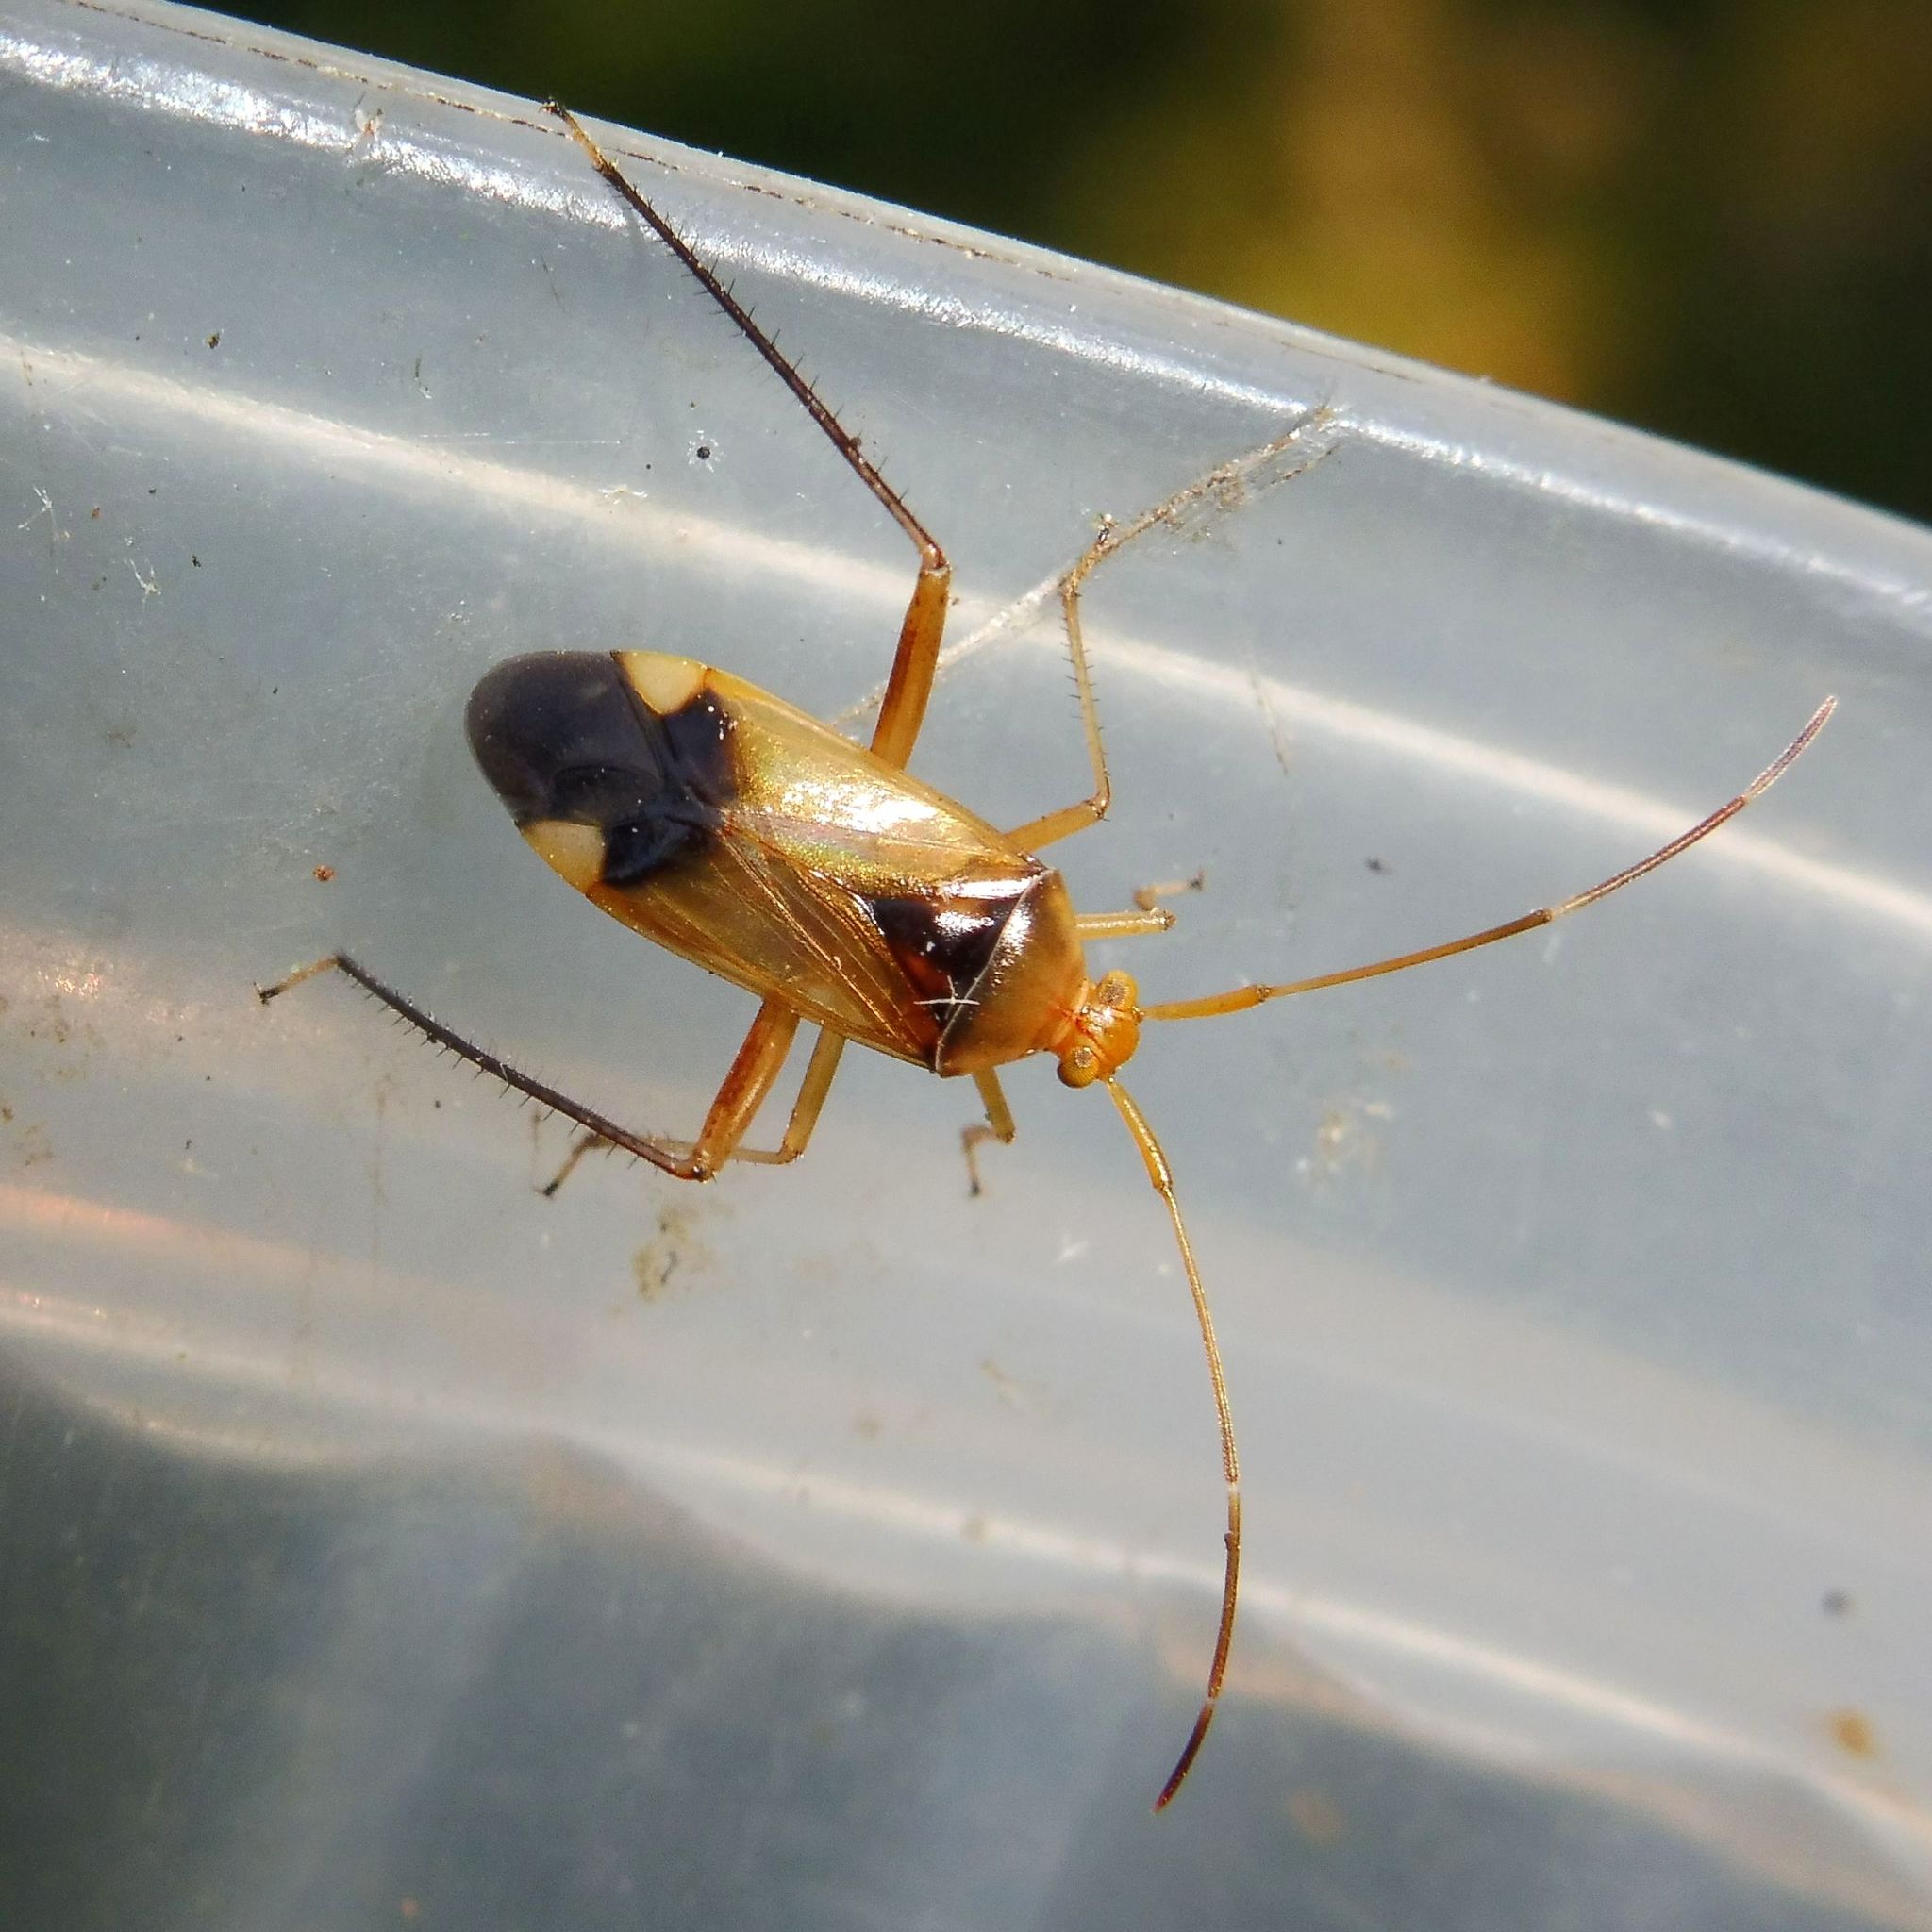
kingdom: Animalia
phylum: Arthropoda
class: Insecta
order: Hemiptera
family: Miridae
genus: Megacoelum
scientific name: Megacoelum infusum
